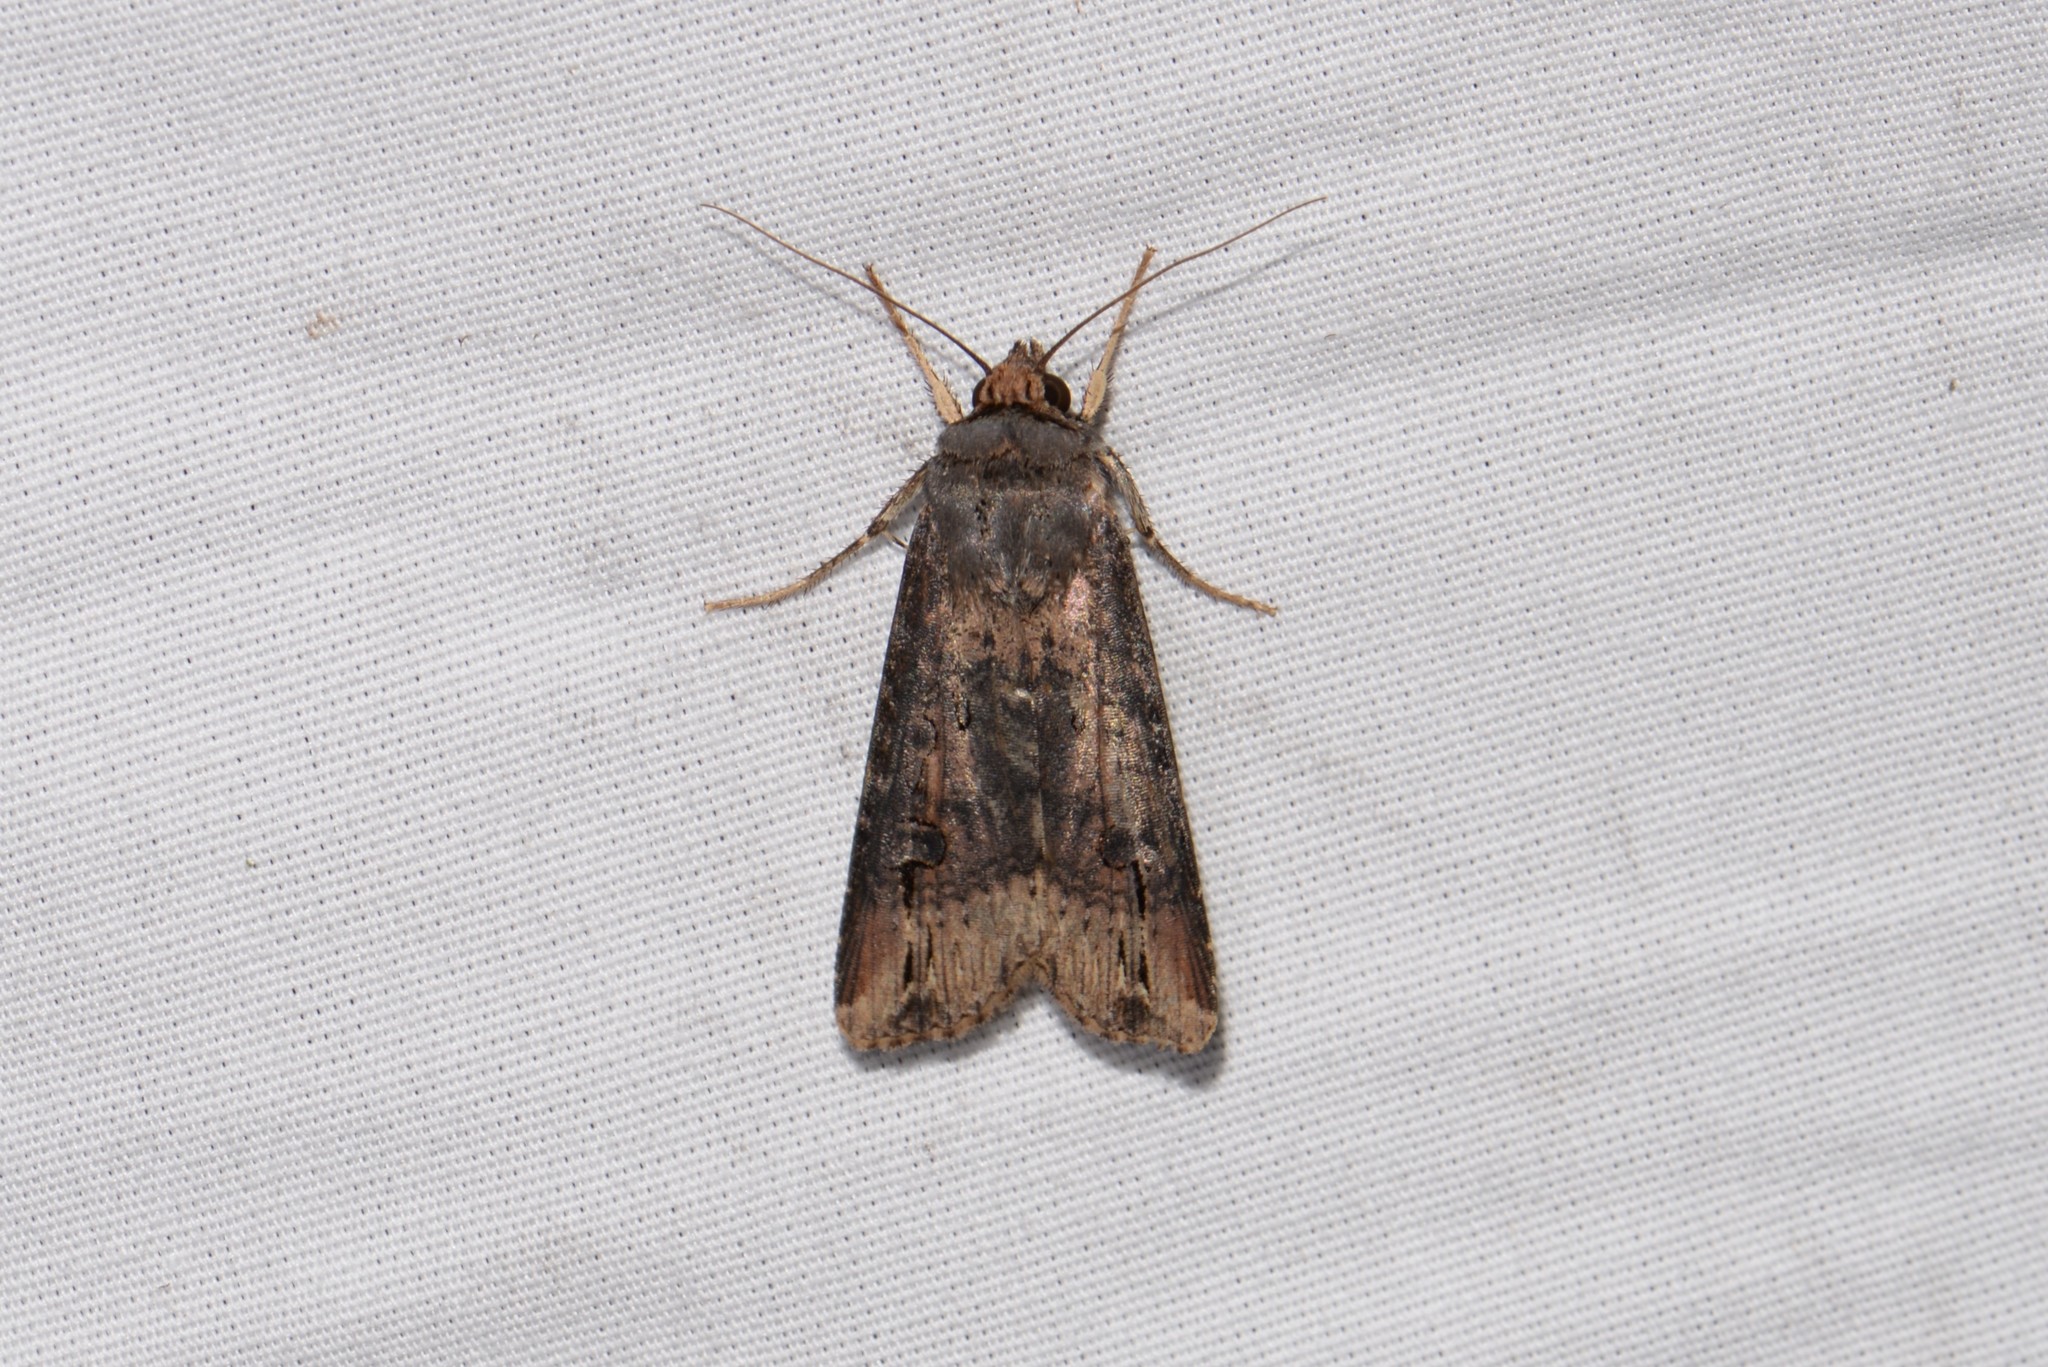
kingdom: Animalia
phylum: Arthropoda
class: Insecta
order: Lepidoptera
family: Noctuidae
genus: Agrotis
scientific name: Agrotis ipsilon
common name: Dark sword-grass
